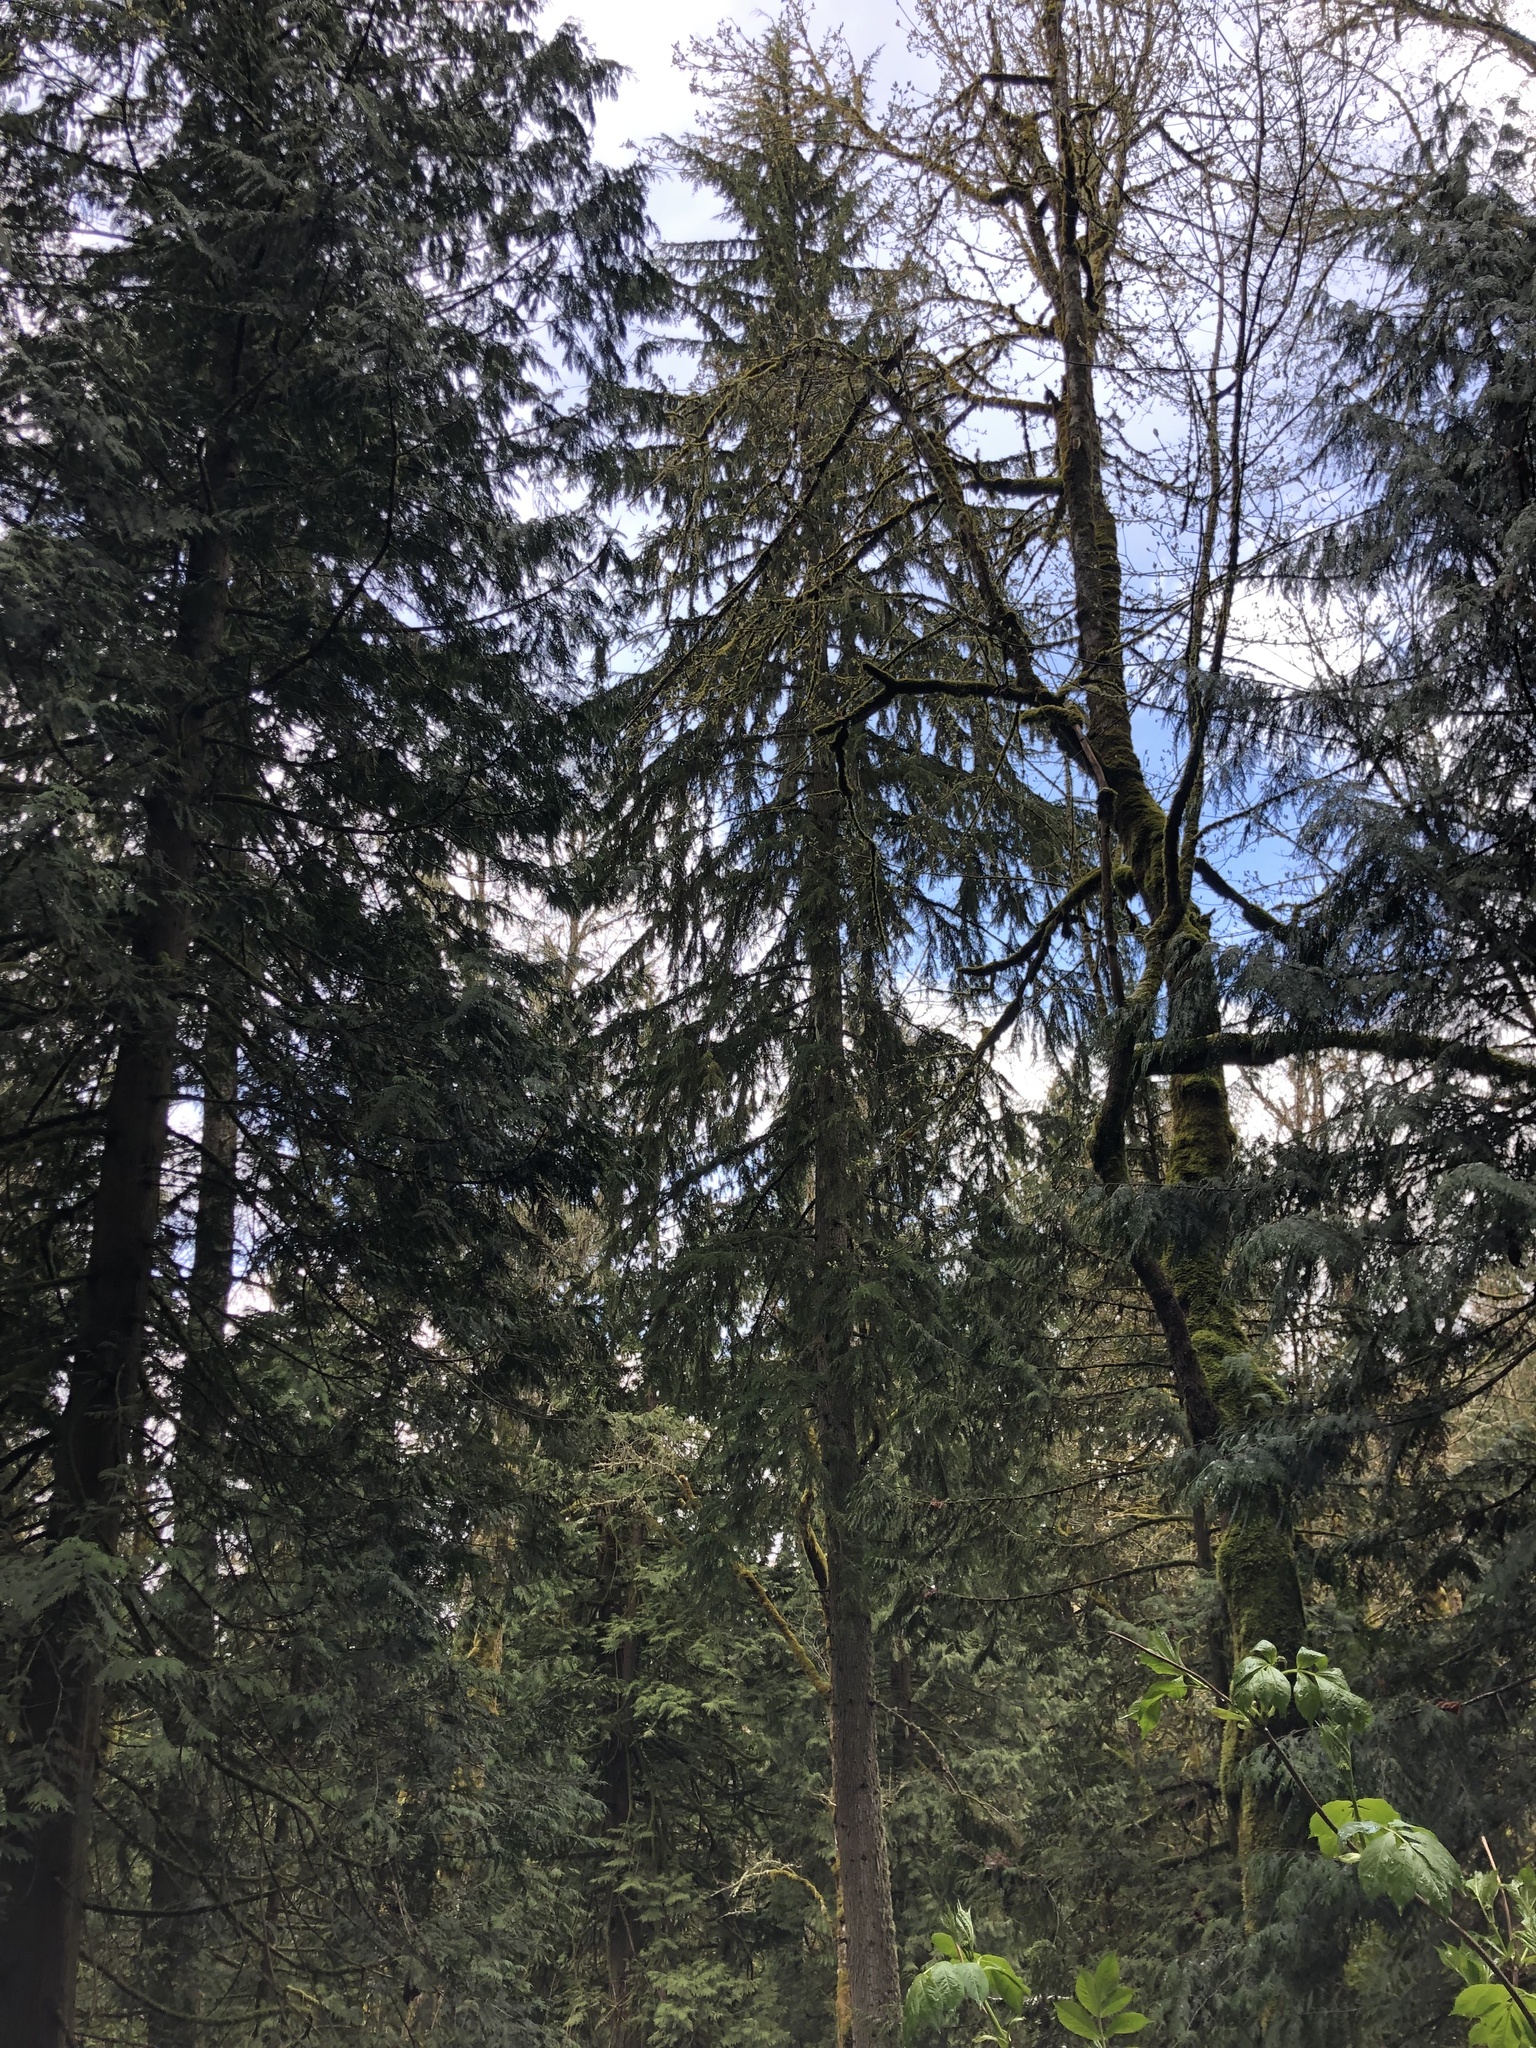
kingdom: Plantae
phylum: Tracheophyta
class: Pinopsida
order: Pinales
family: Pinaceae
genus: Tsuga
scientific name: Tsuga heterophylla
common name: Western hemlock
